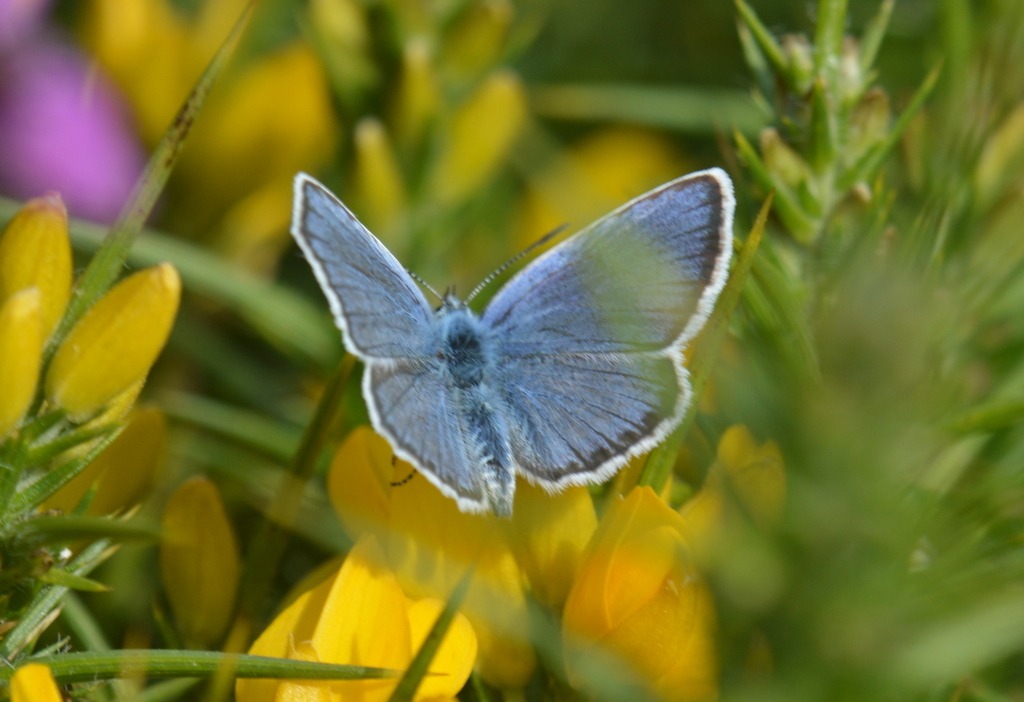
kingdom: Animalia
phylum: Arthropoda
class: Insecta
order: Lepidoptera
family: Lycaenidae
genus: Plebejus
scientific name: Plebejus argus
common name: Silver-studded blue
